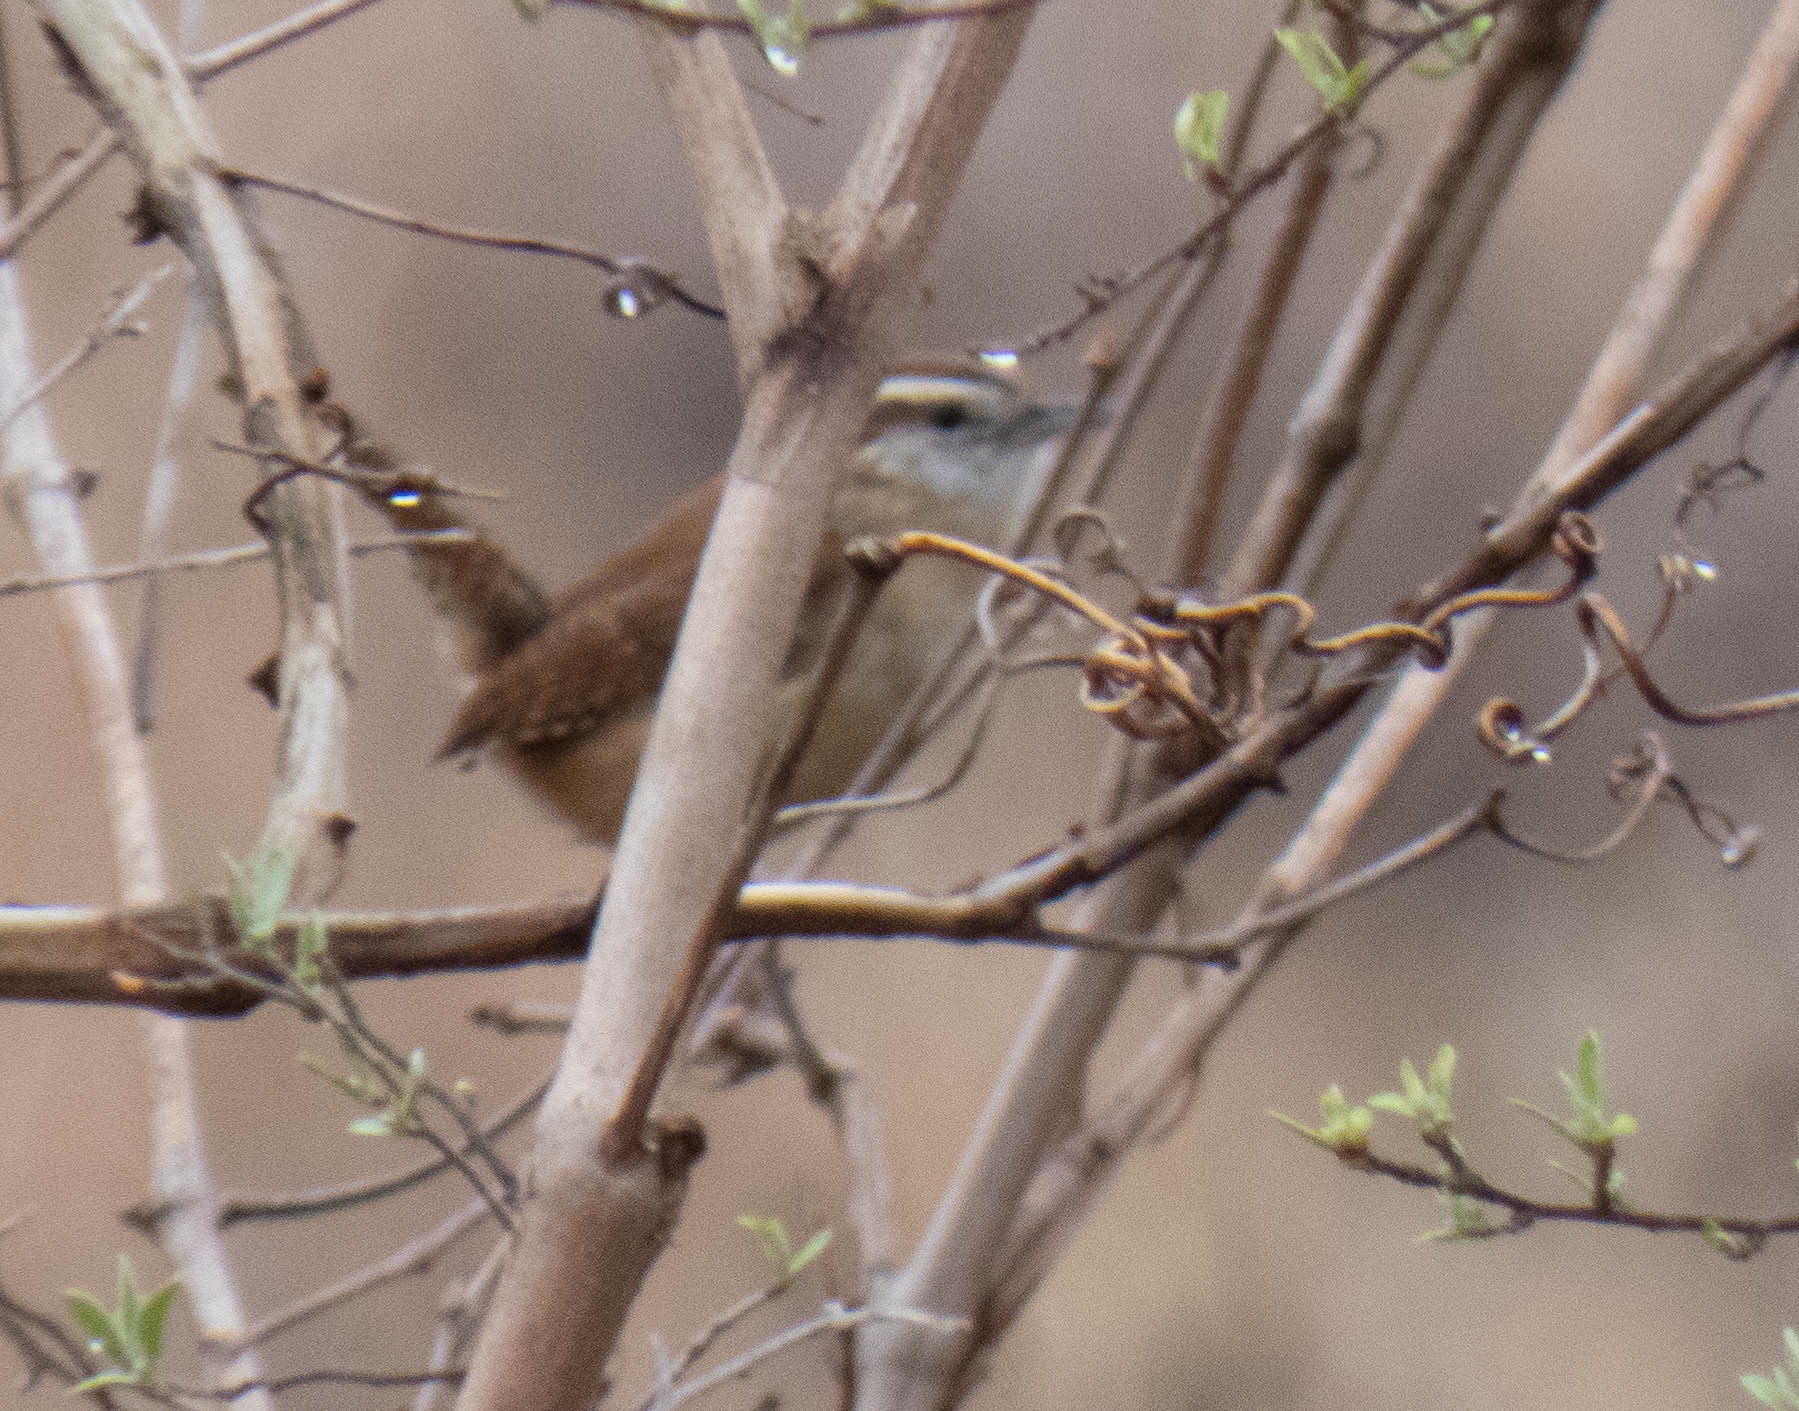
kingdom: Animalia
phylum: Chordata
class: Aves
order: Passeriformes
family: Troglodytidae
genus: Thryothorus
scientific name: Thryothorus ludovicianus
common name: Carolina wren
